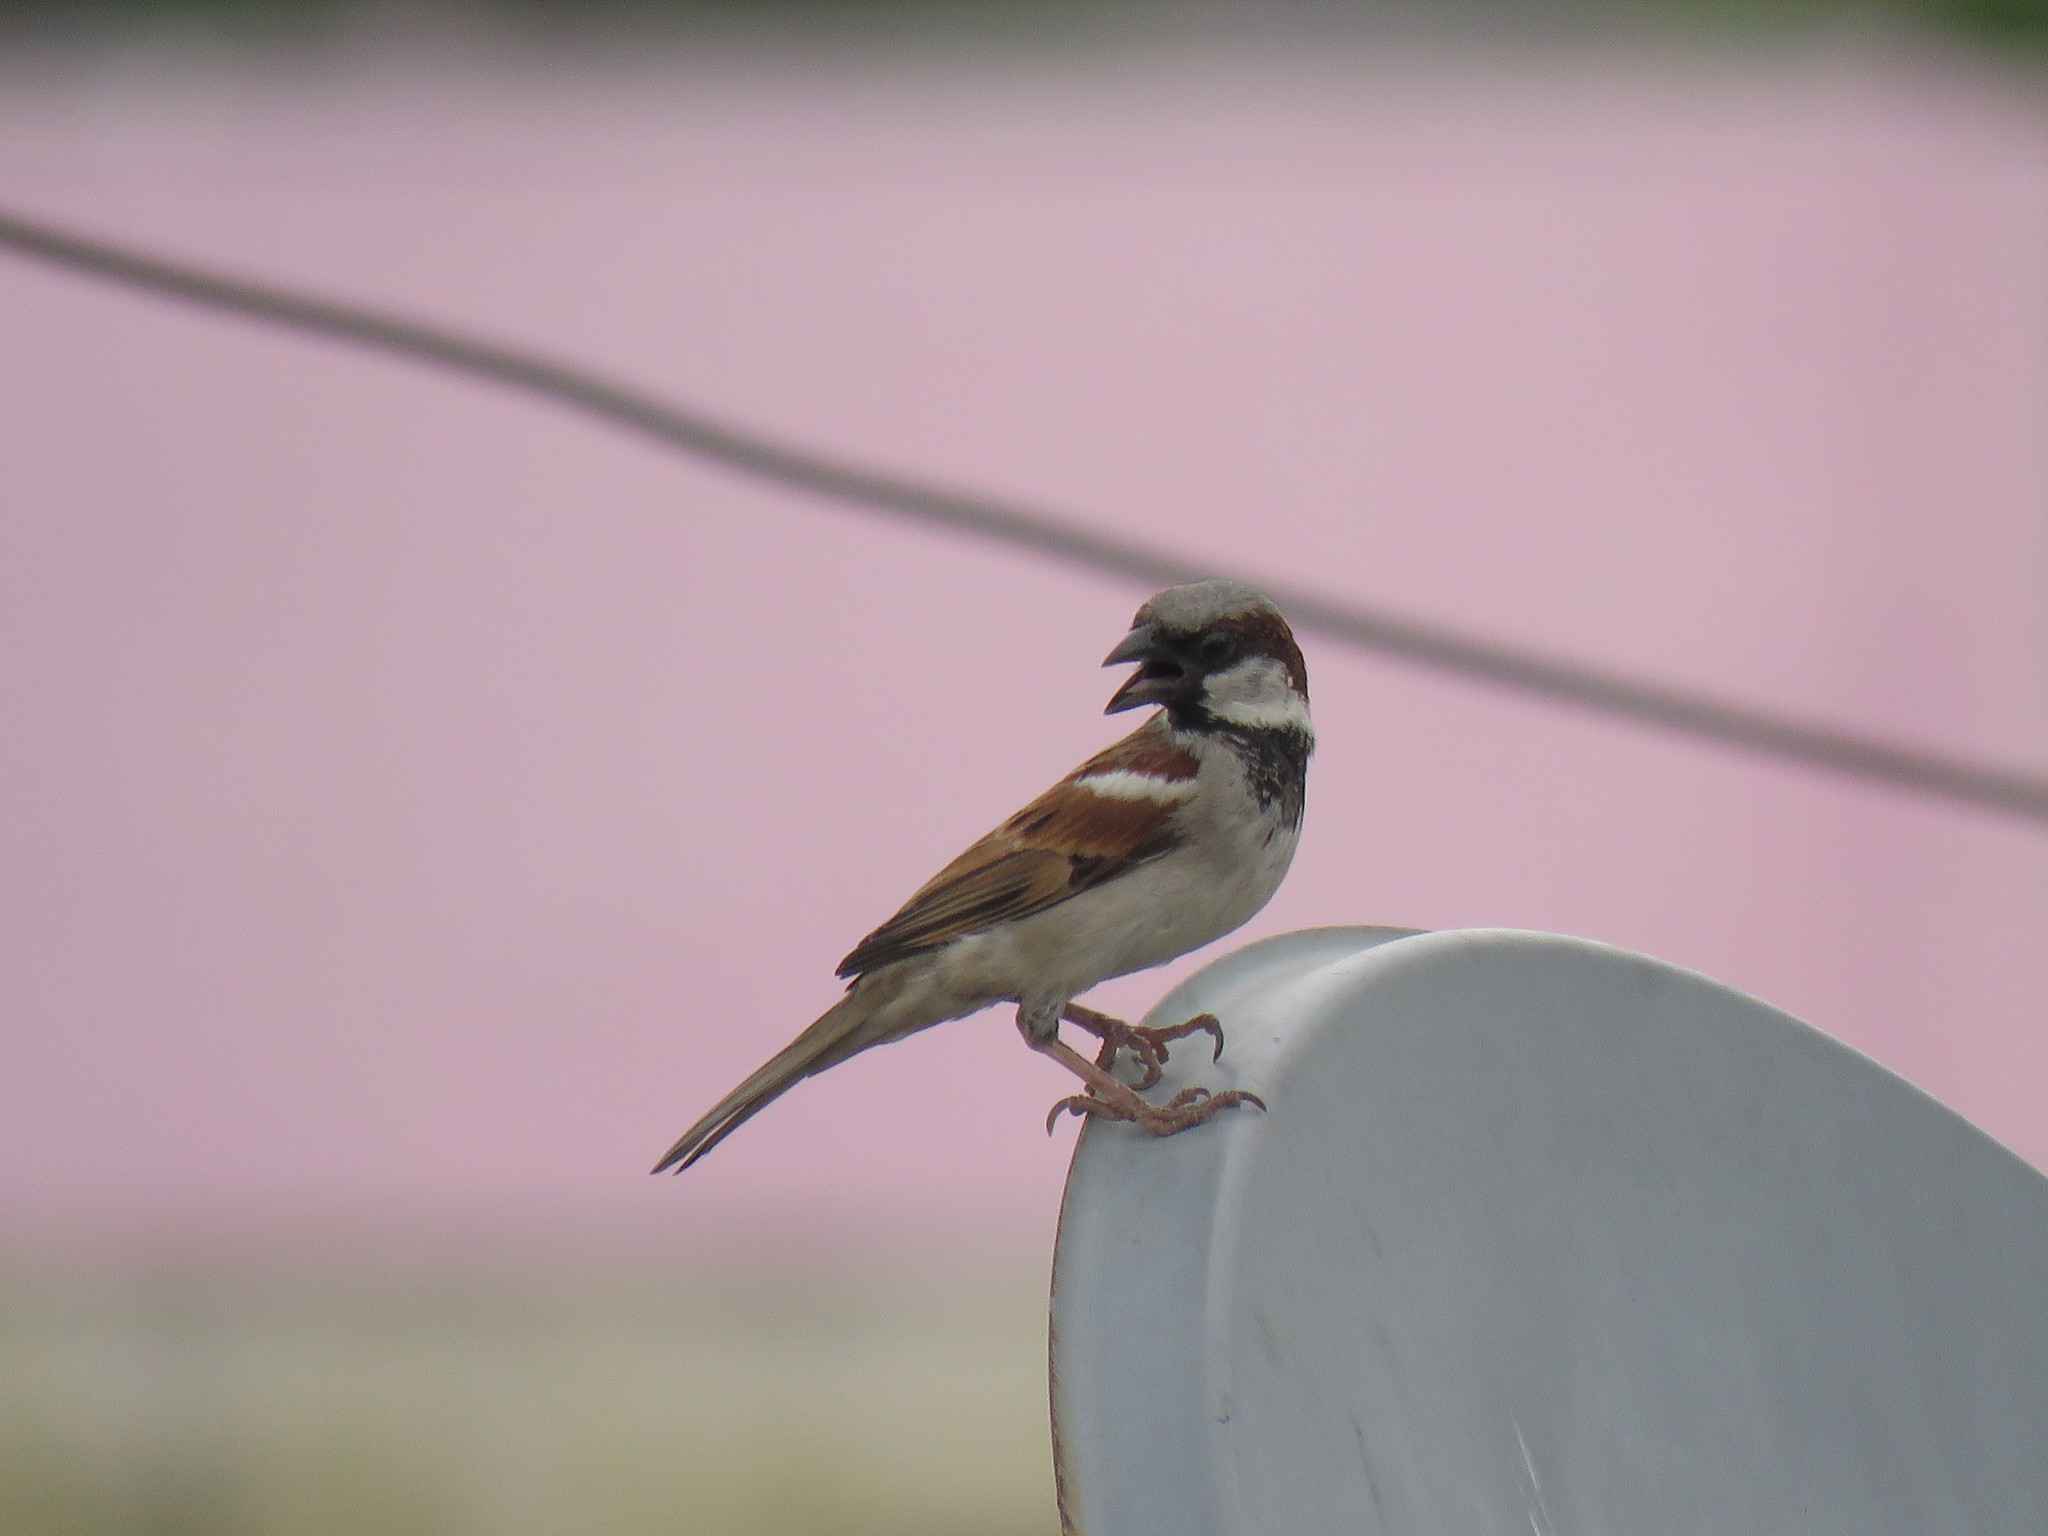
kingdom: Animalia
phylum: Chordata
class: Aves
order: Passeriformes
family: Passeridae
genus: Passer
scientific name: Passer domesticus
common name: House sparrow
